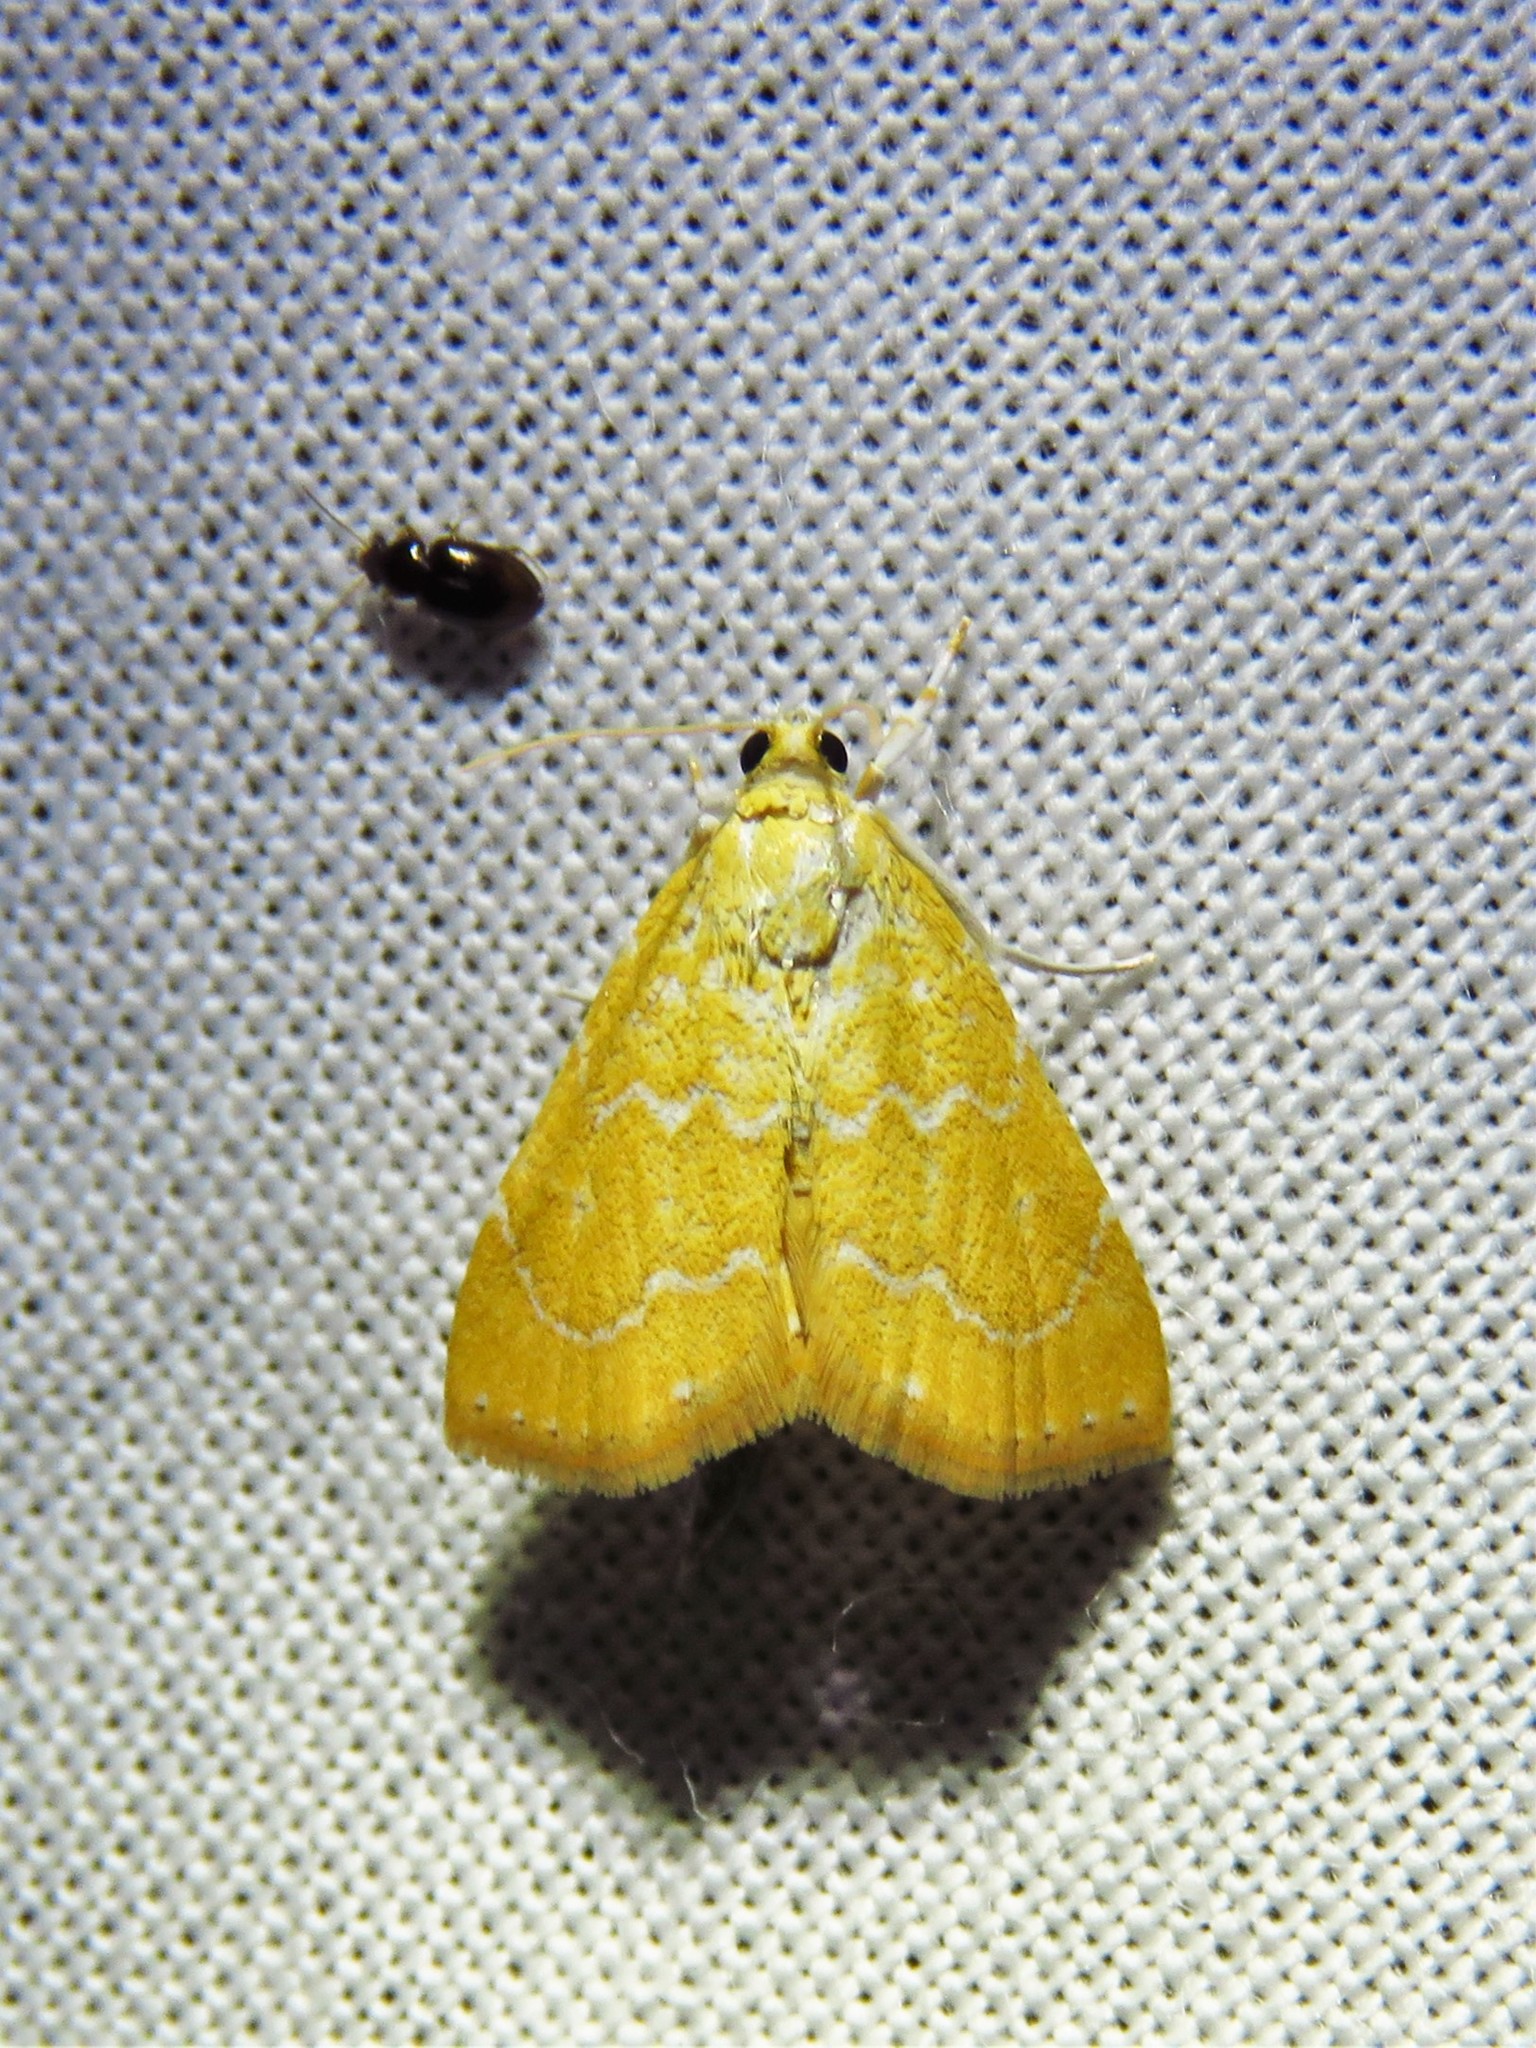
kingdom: Animalia
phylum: Arthropoda
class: Insecta
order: Lepidoptera
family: Crambidae
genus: Glaphyria
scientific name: Glaphyria sesquistrialis
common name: White-roped glaphyria
